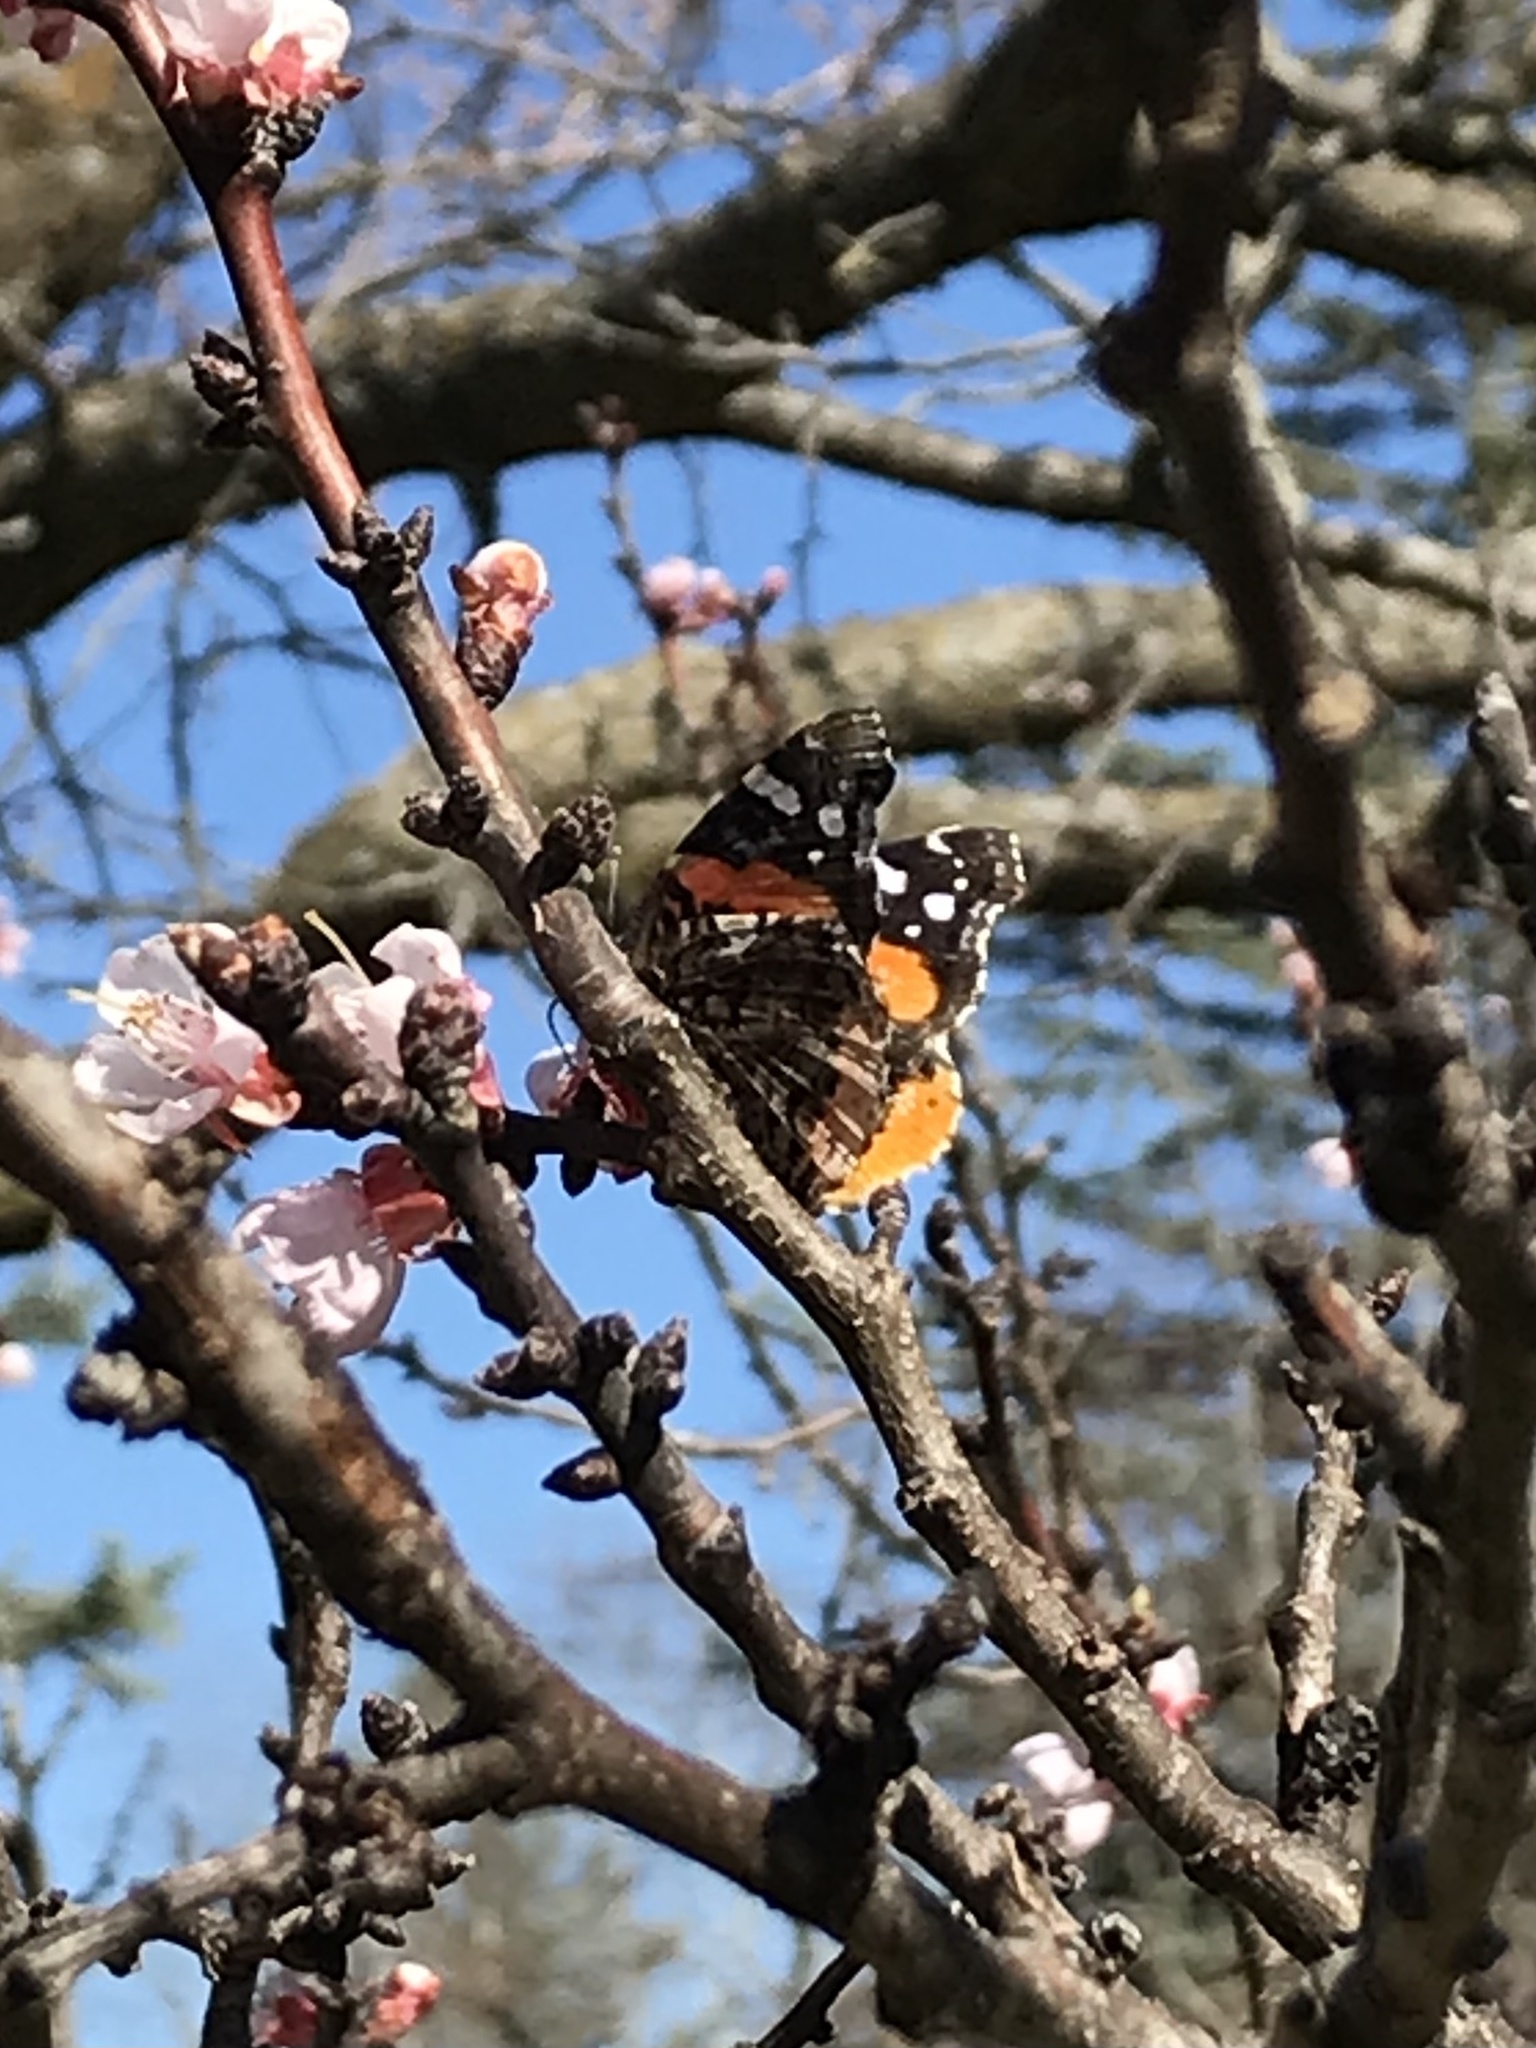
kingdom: Animalia
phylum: Arthropoda
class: Insecta
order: Lepidoptera
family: Nymphalidae
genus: Vanessa
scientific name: Vanessa atalanta
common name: Red admiral
